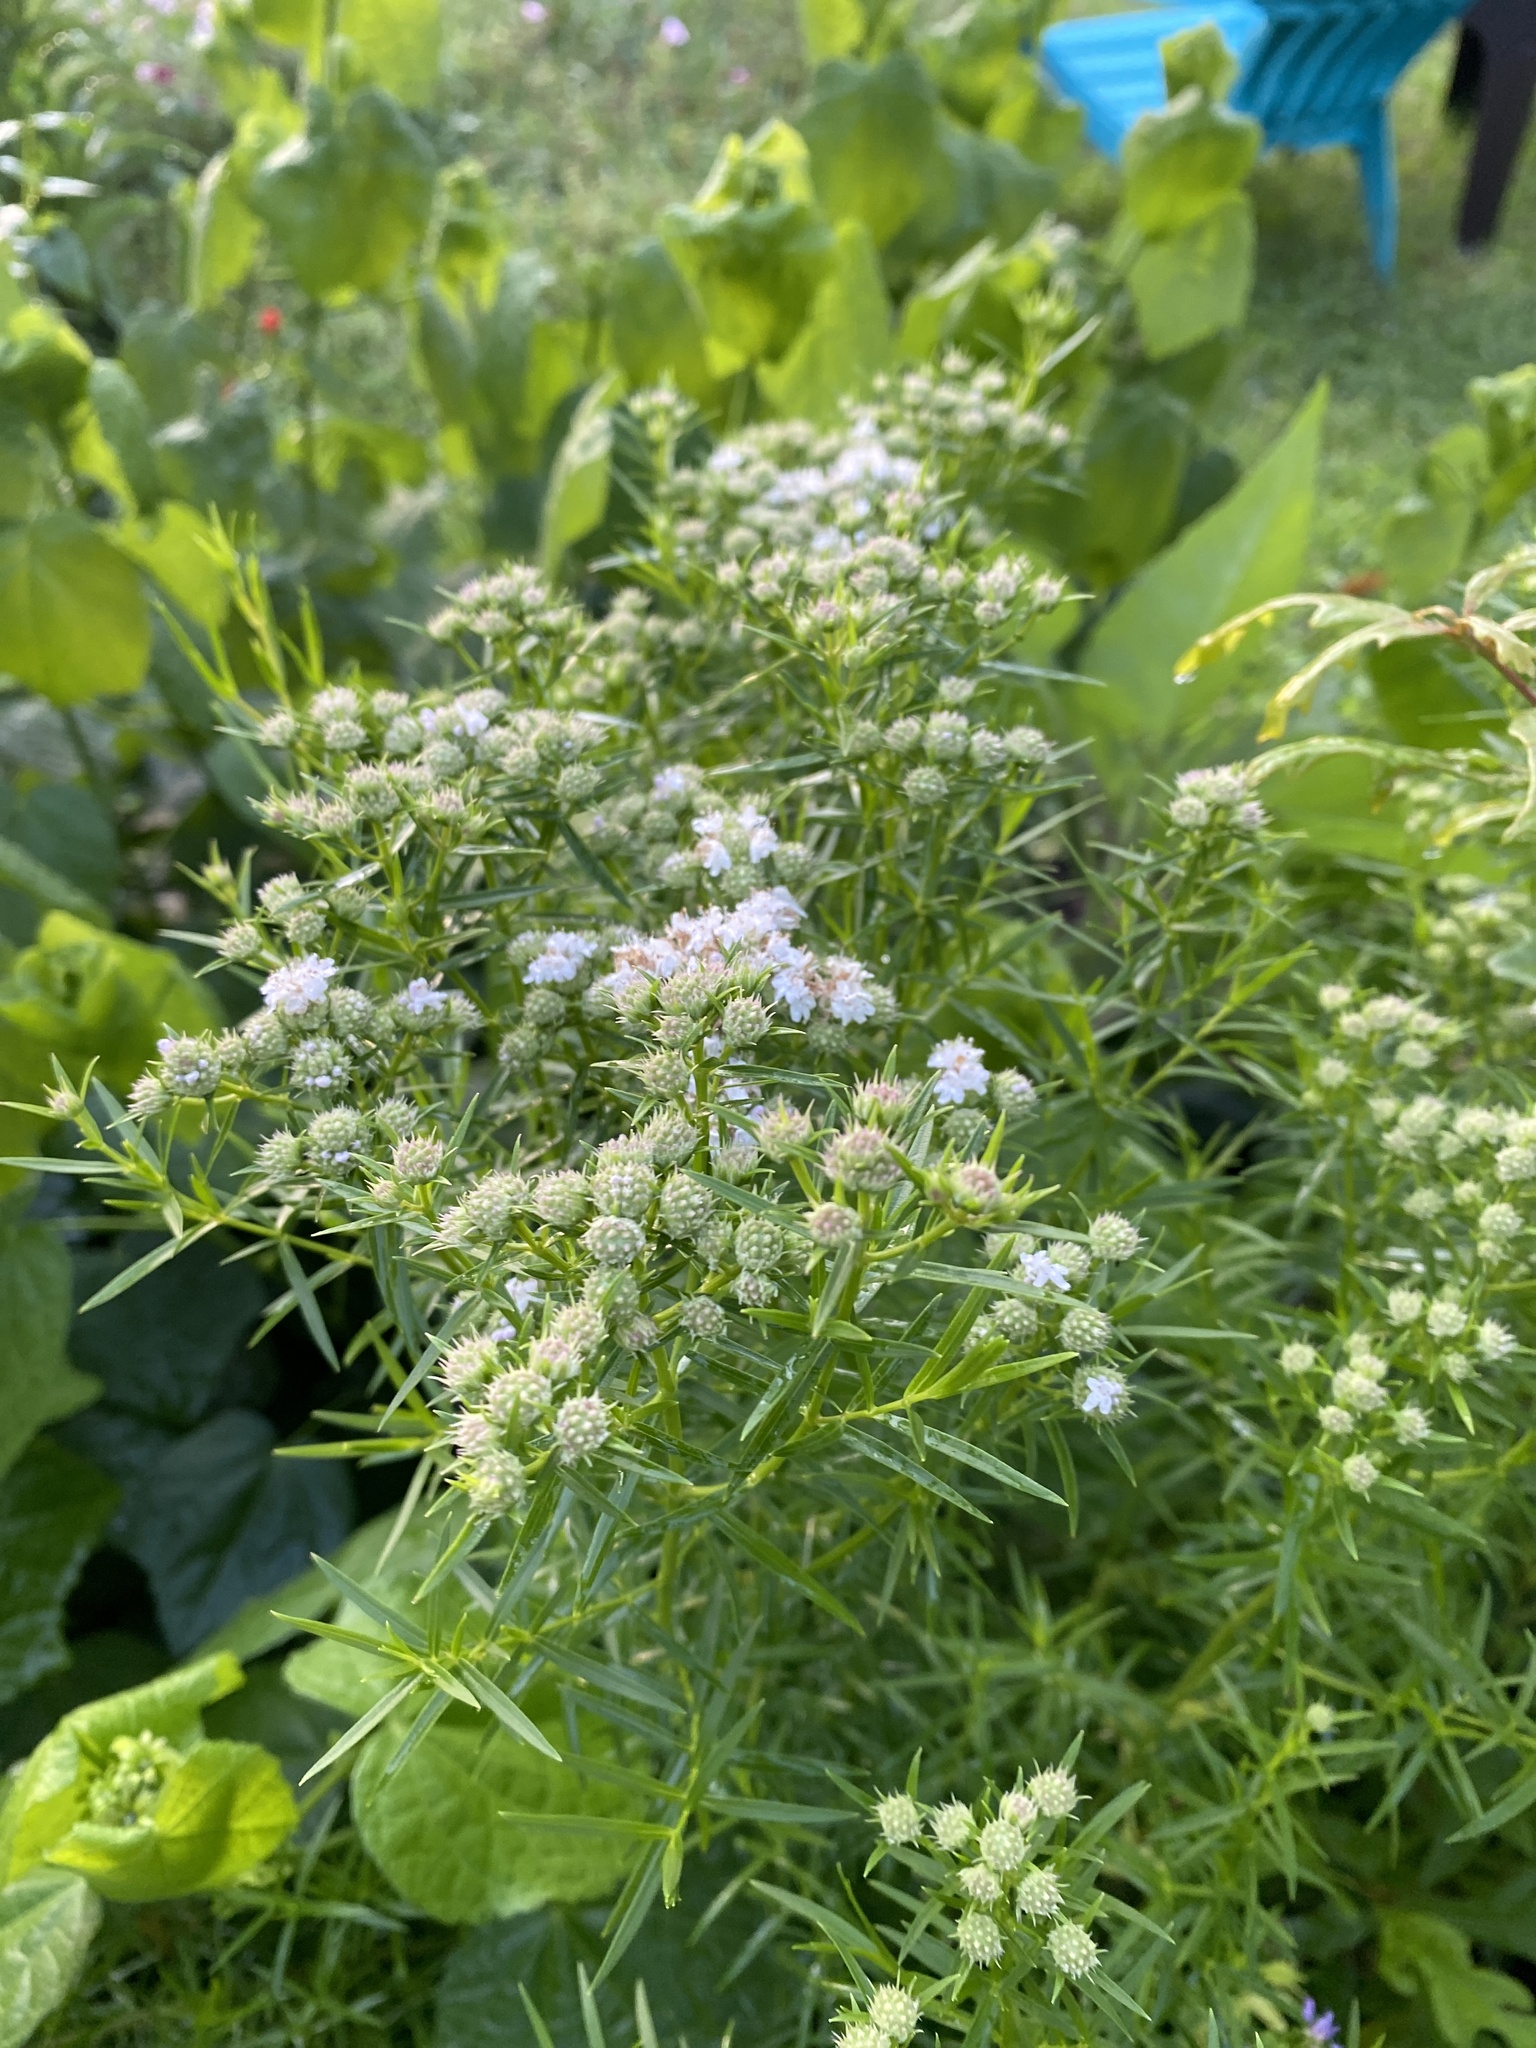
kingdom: Plantae
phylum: Tracheophyta
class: Magnoliopsida
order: Lamiales
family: Lamiaceae
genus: Pycnanthemum
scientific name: Pycnanthemum tenuifolium
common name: Narrow-leaf mountain-mint
